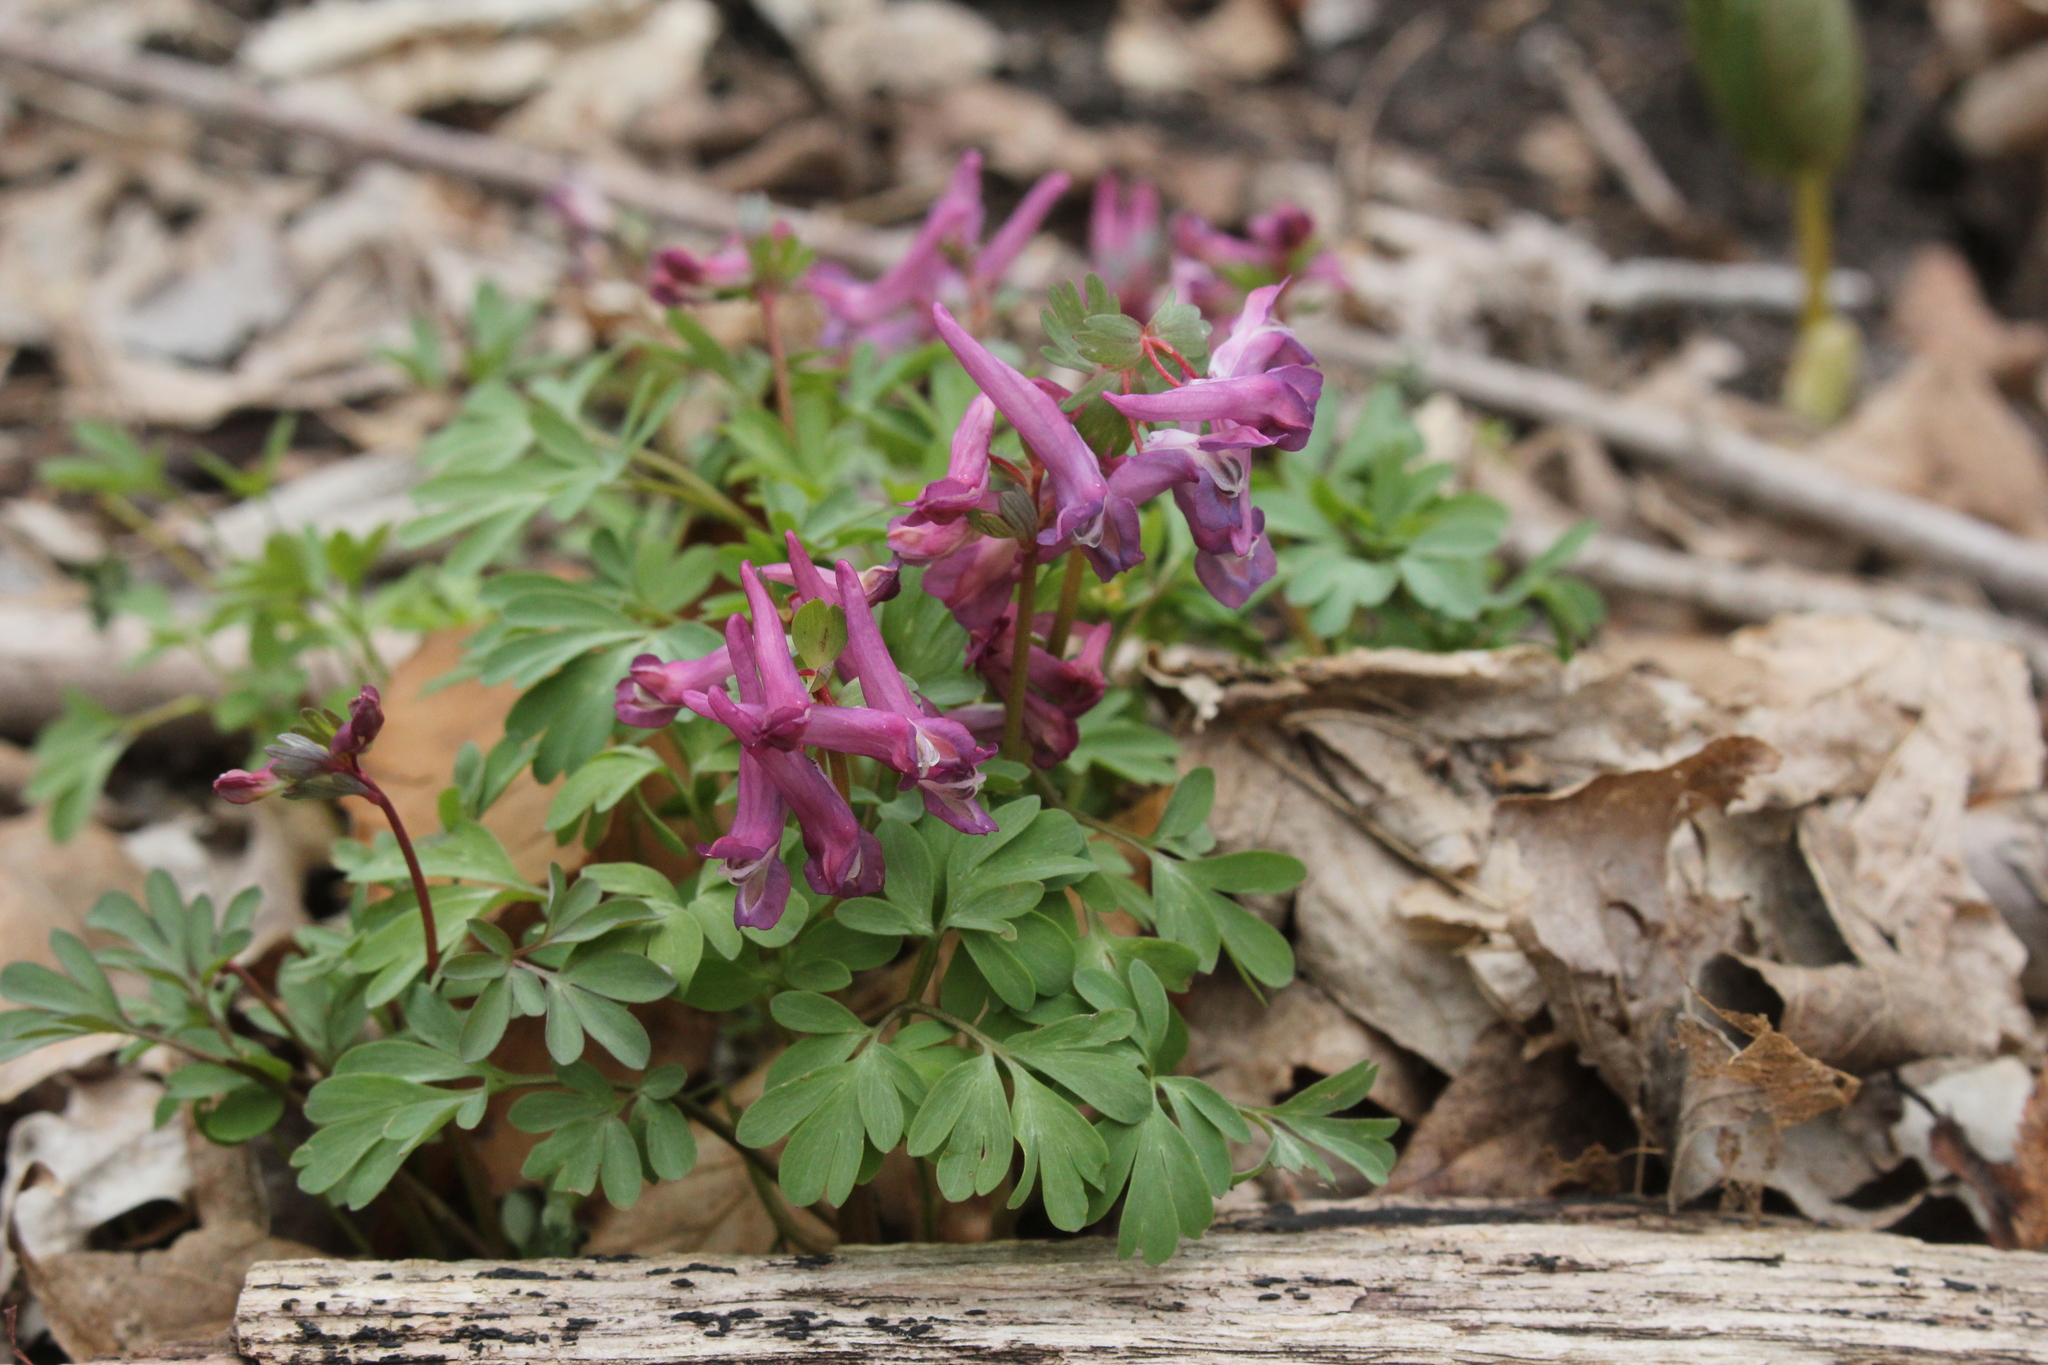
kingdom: Plantae
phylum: Tracheophyta
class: Magnoliopsida
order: Ranunculales
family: Papaveraceae
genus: Corydalis
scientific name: Corydalis solida
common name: Bird-in-a-bush
